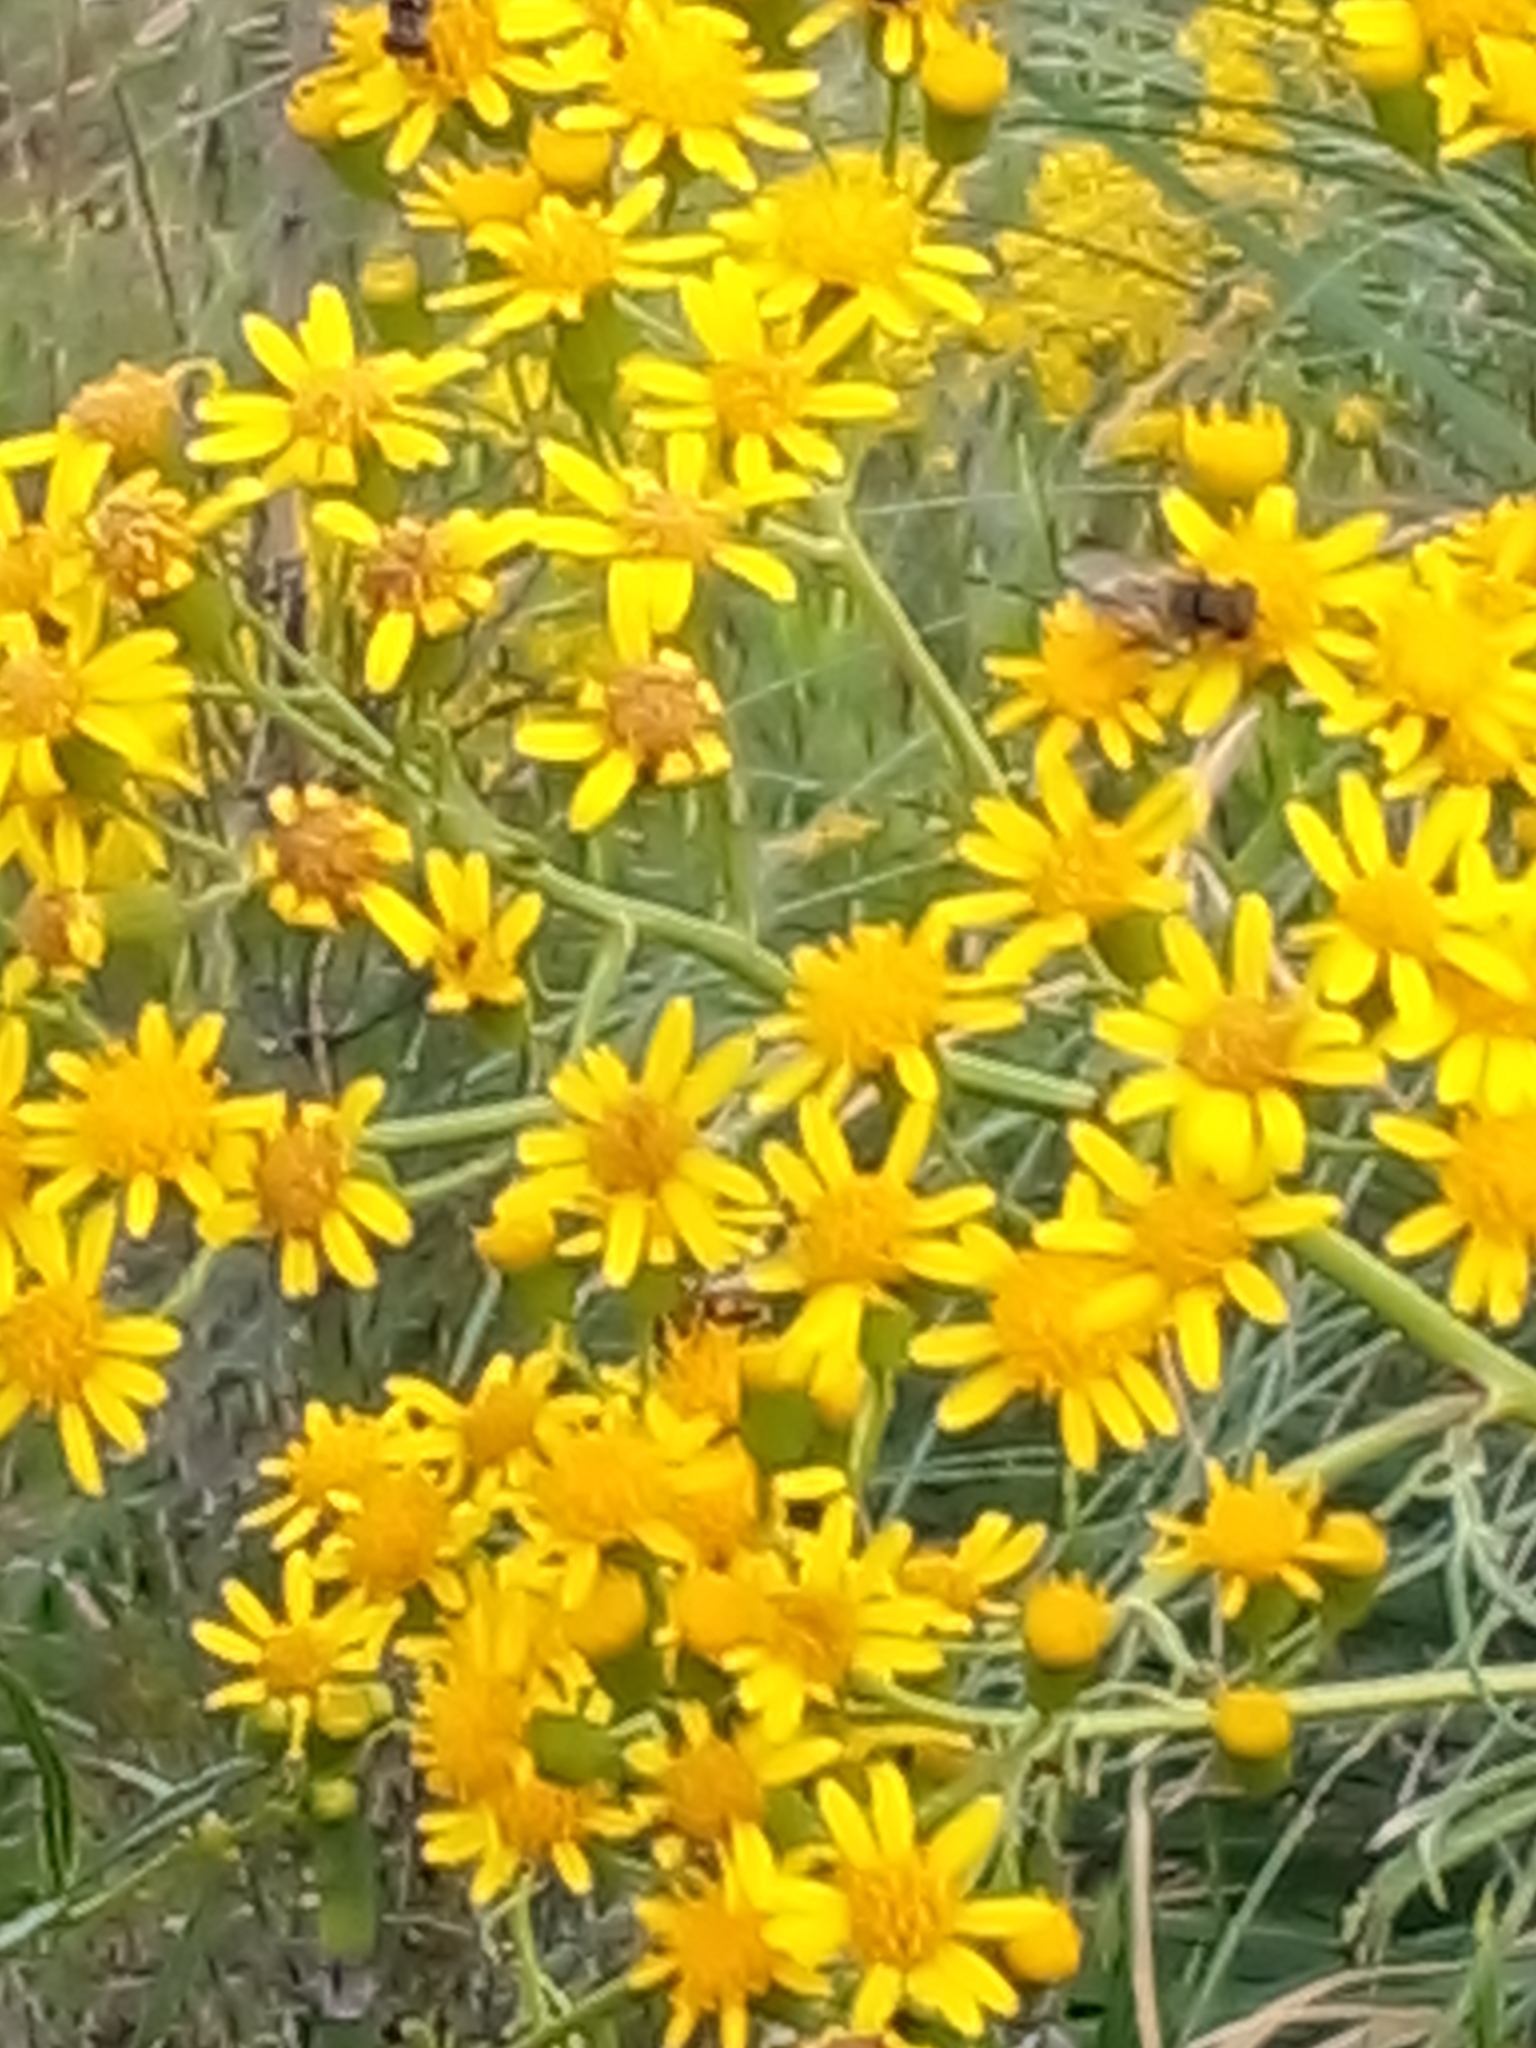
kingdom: Plantae
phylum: Tracheophyta
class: Magnoliopsida
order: Asterales
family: Asteraceae
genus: Senecio
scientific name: Senecio brasiliensis
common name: Hemp-leaf ragwort
